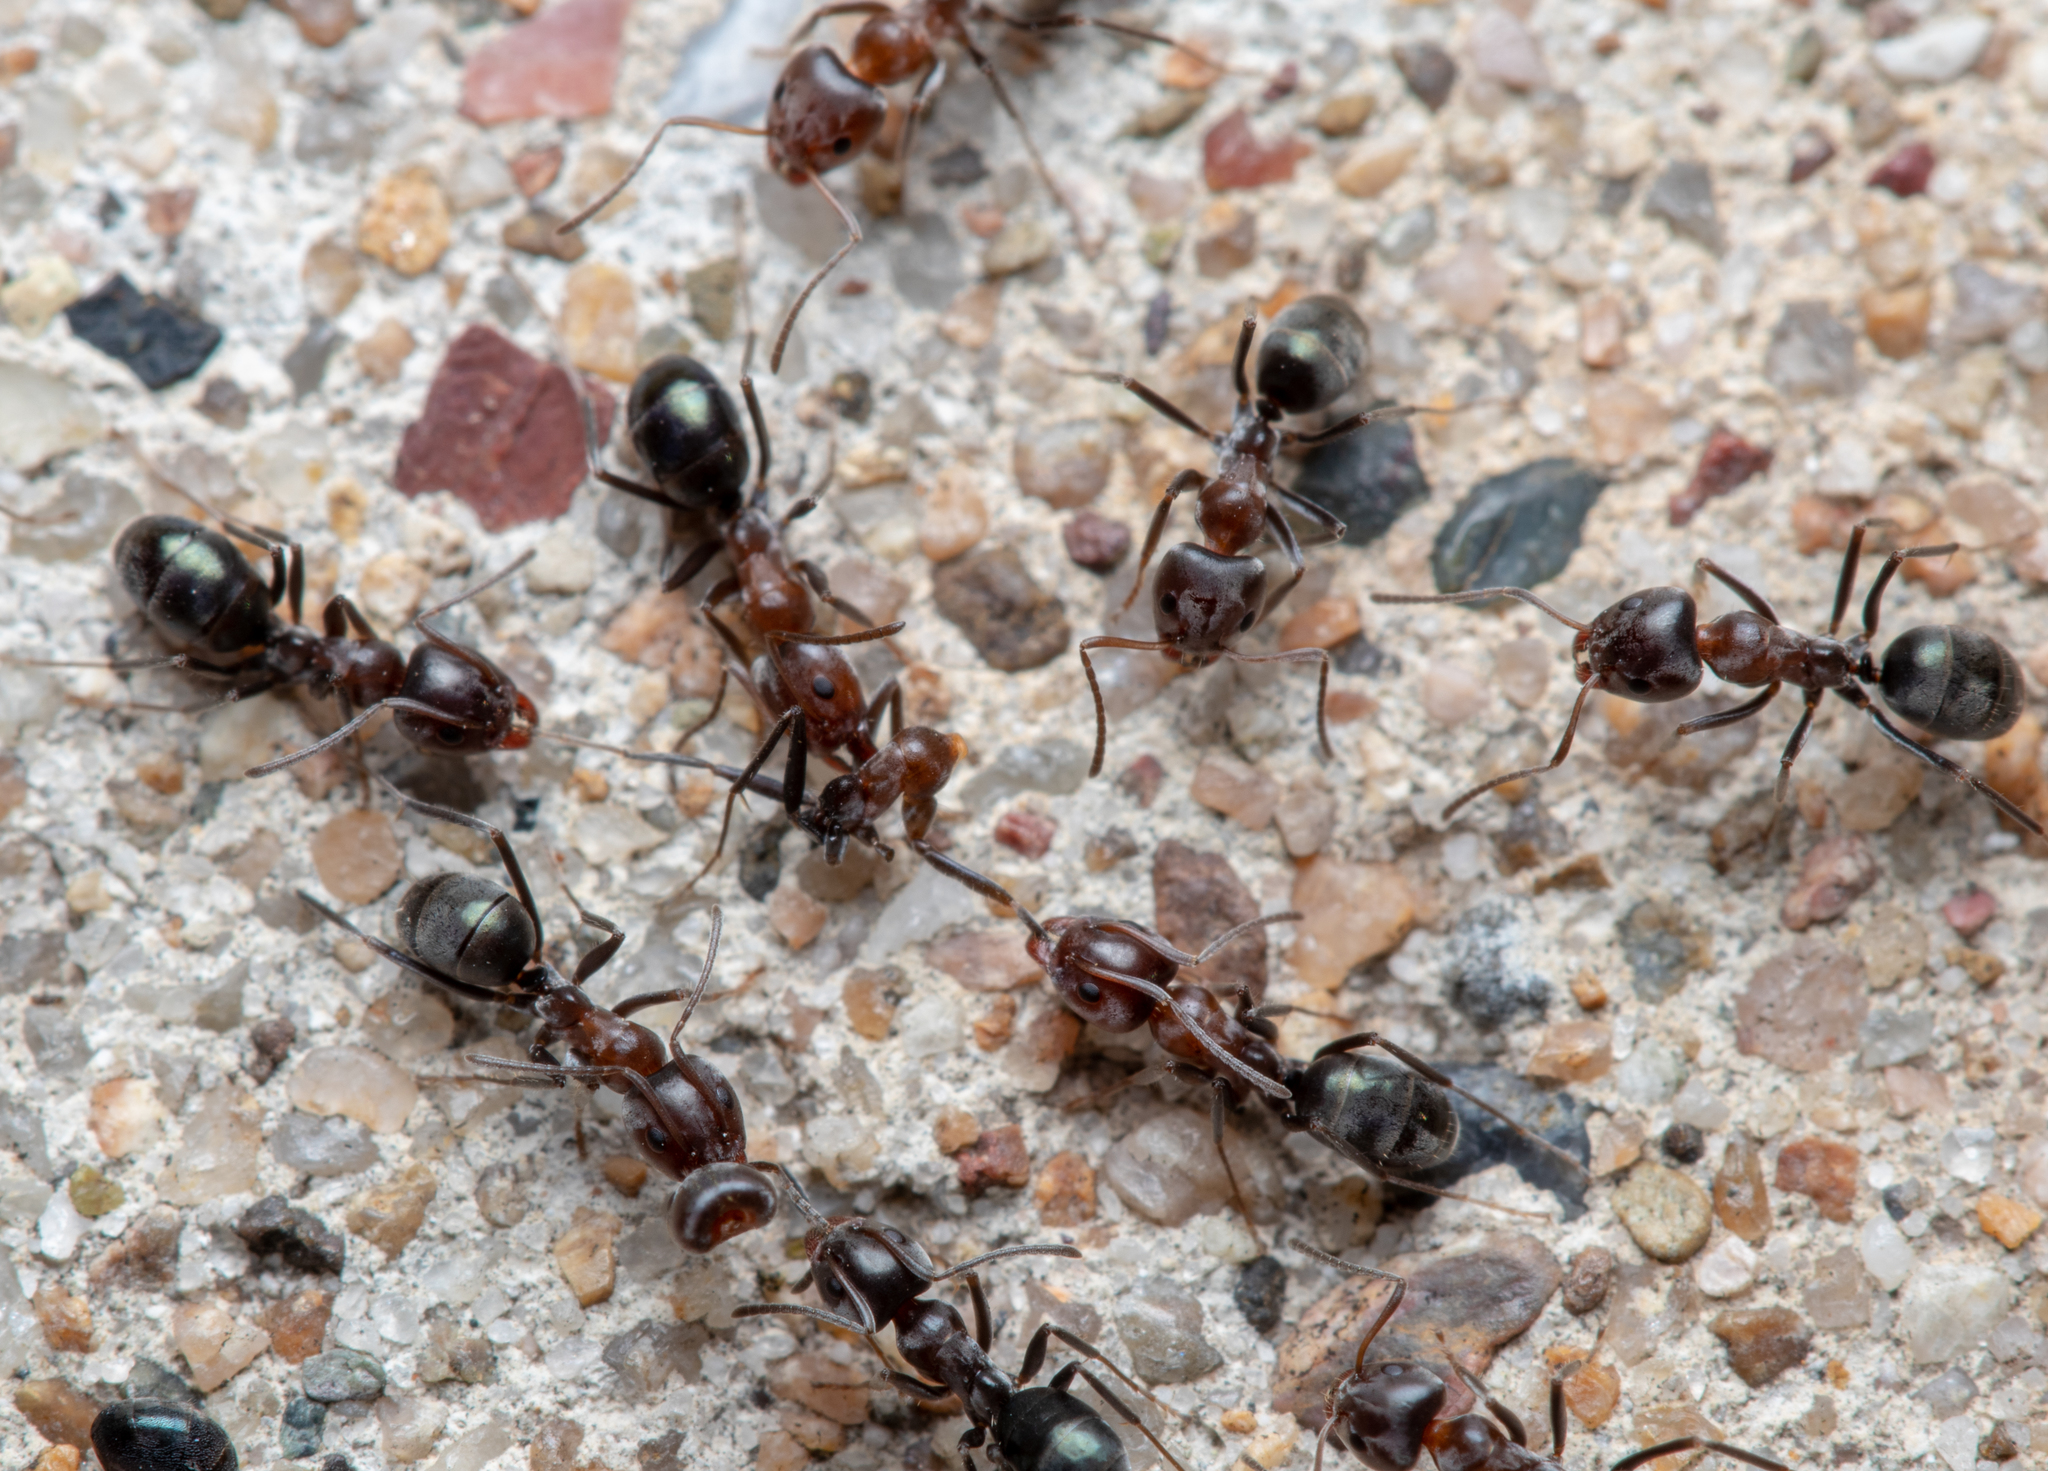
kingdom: Animalia
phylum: Arthropoda
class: Insecta
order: Hymenoptera
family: Formicidae
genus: Iridomyrmex
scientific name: Iridomyrmex rufoniger
